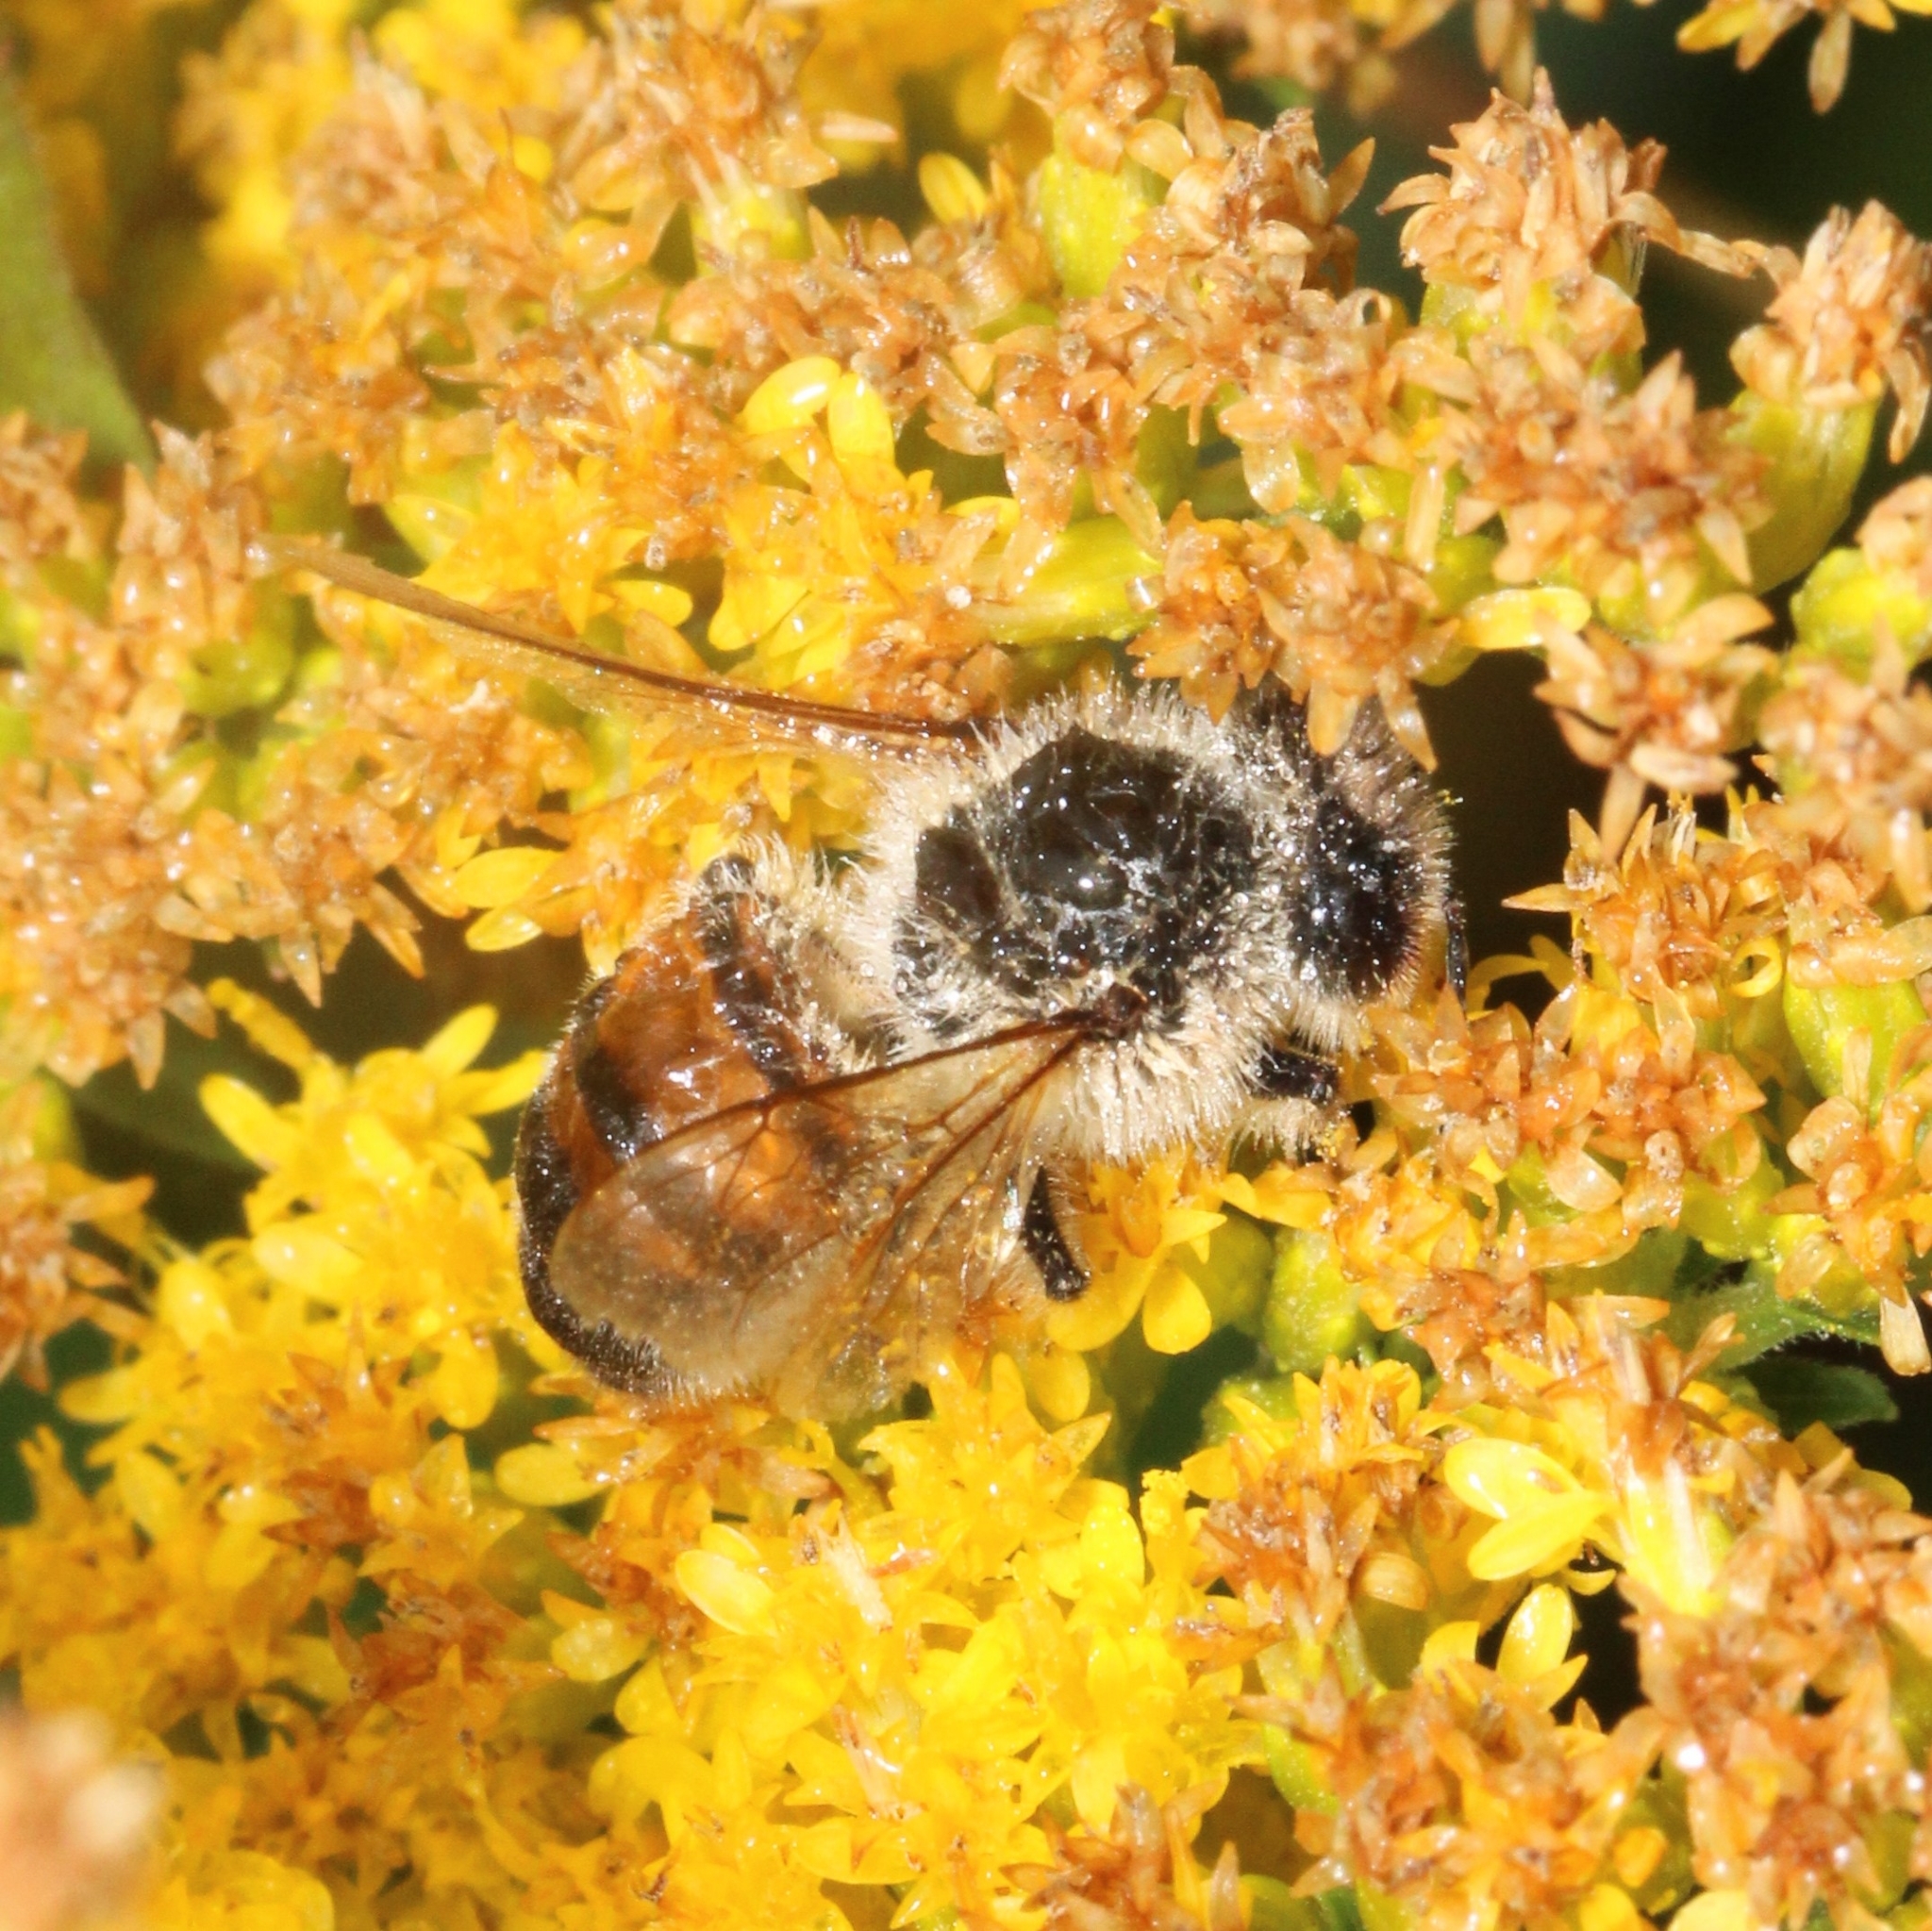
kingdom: Animalia
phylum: Arthropoda
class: Insecta
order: Hymenoptera
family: Apidae
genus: Apis
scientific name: Apis mellifera
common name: Honey bee
